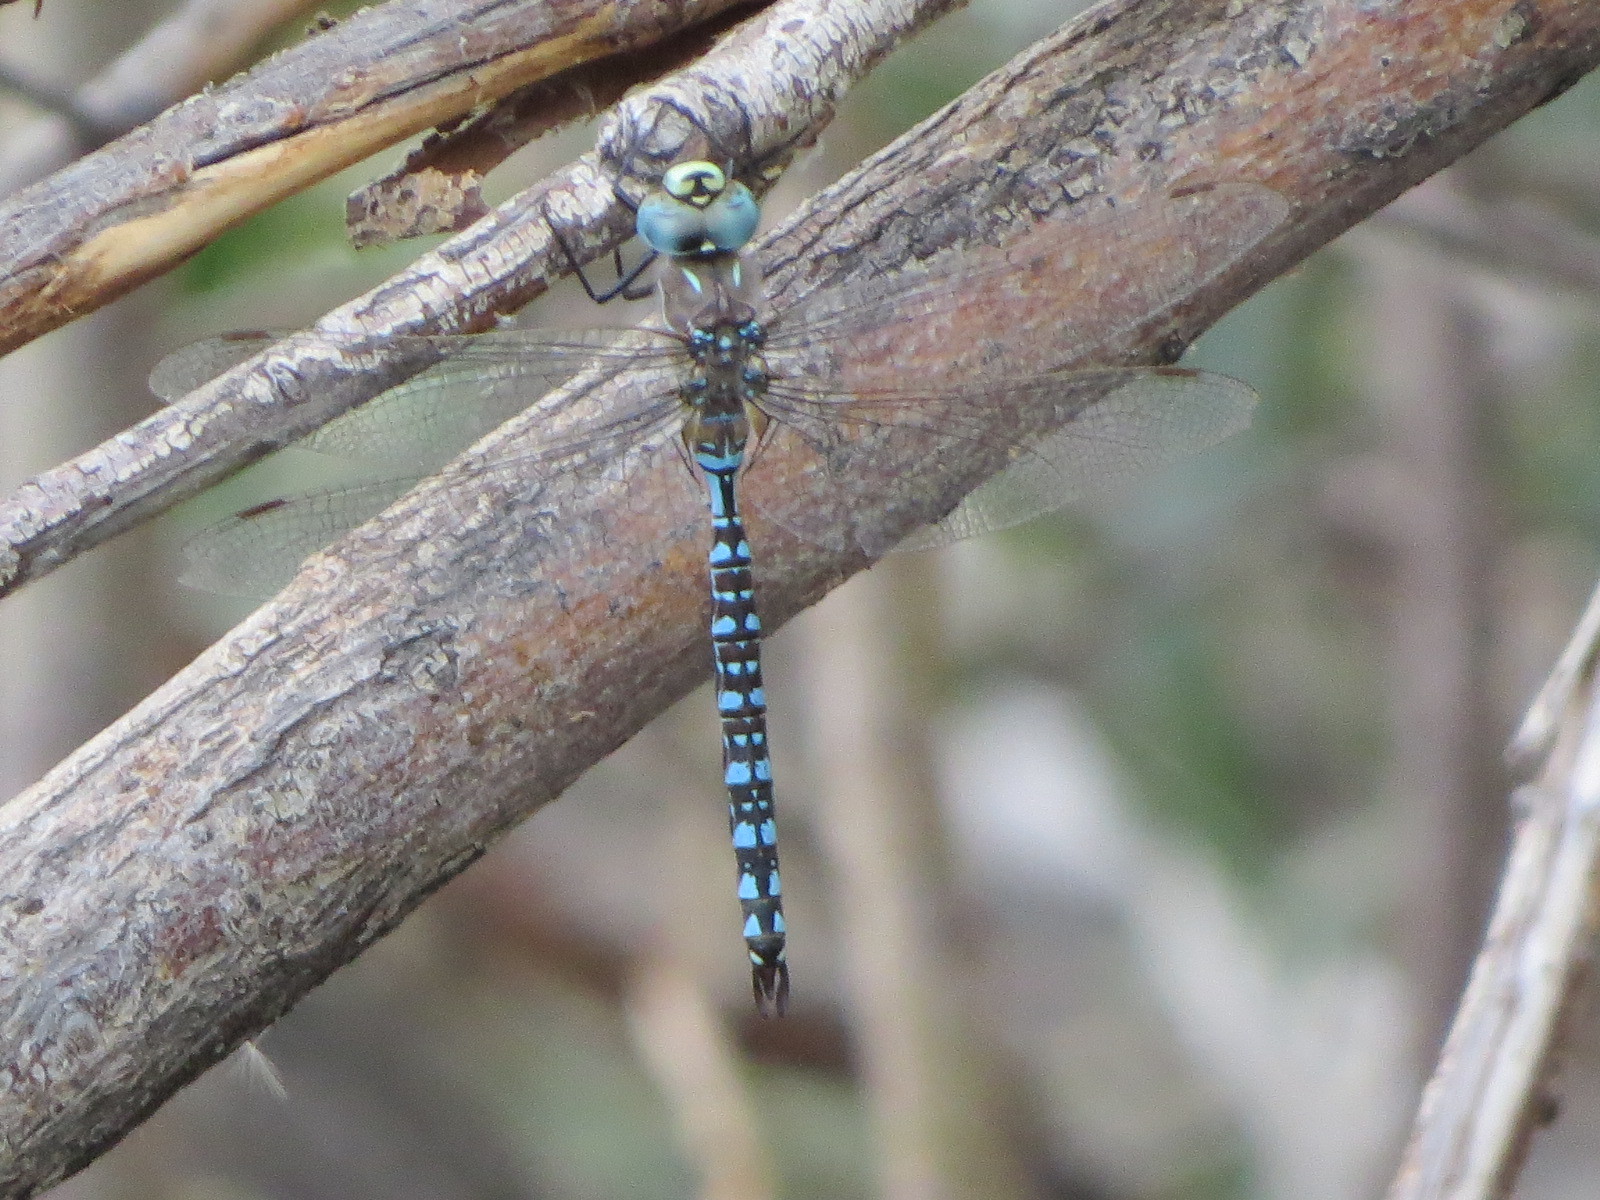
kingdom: Animalia
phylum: Arthropoda
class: Insecta
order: Odonata
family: Aeshnidae
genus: Aeshna
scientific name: Aeshna interrupta
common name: Variable darner
